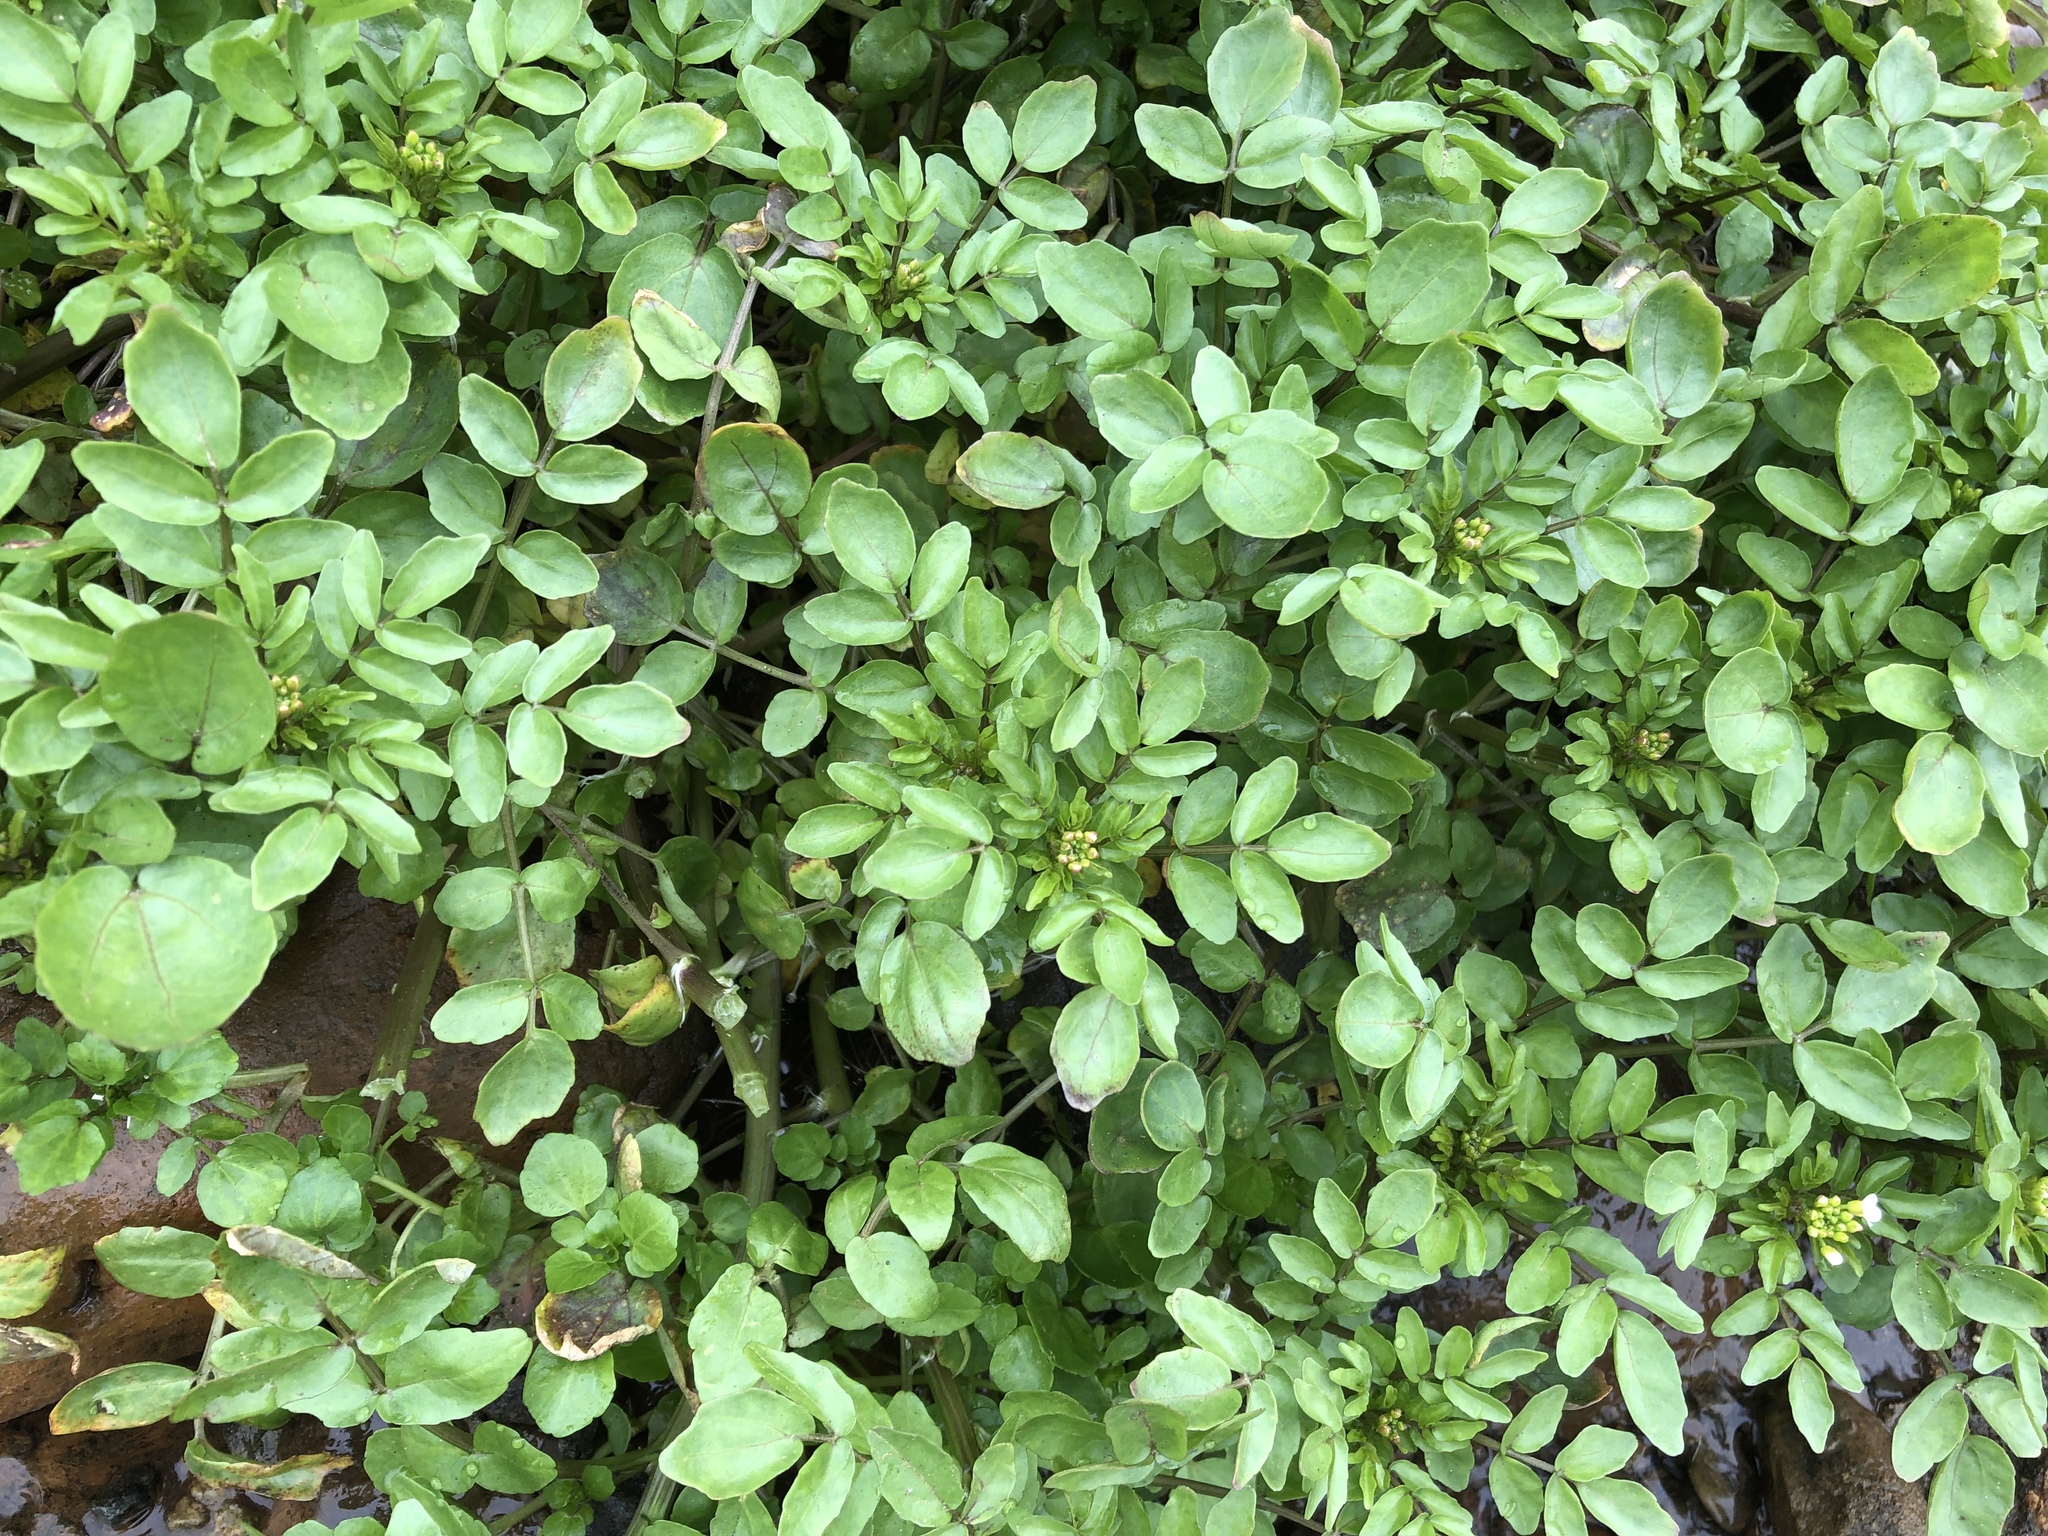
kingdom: Plantae
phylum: Tracheophyta
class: Magnoliopsida
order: Brassicales
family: Brassicaceae
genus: Nasturtium
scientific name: Nasturtium officinale
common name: Watercress
